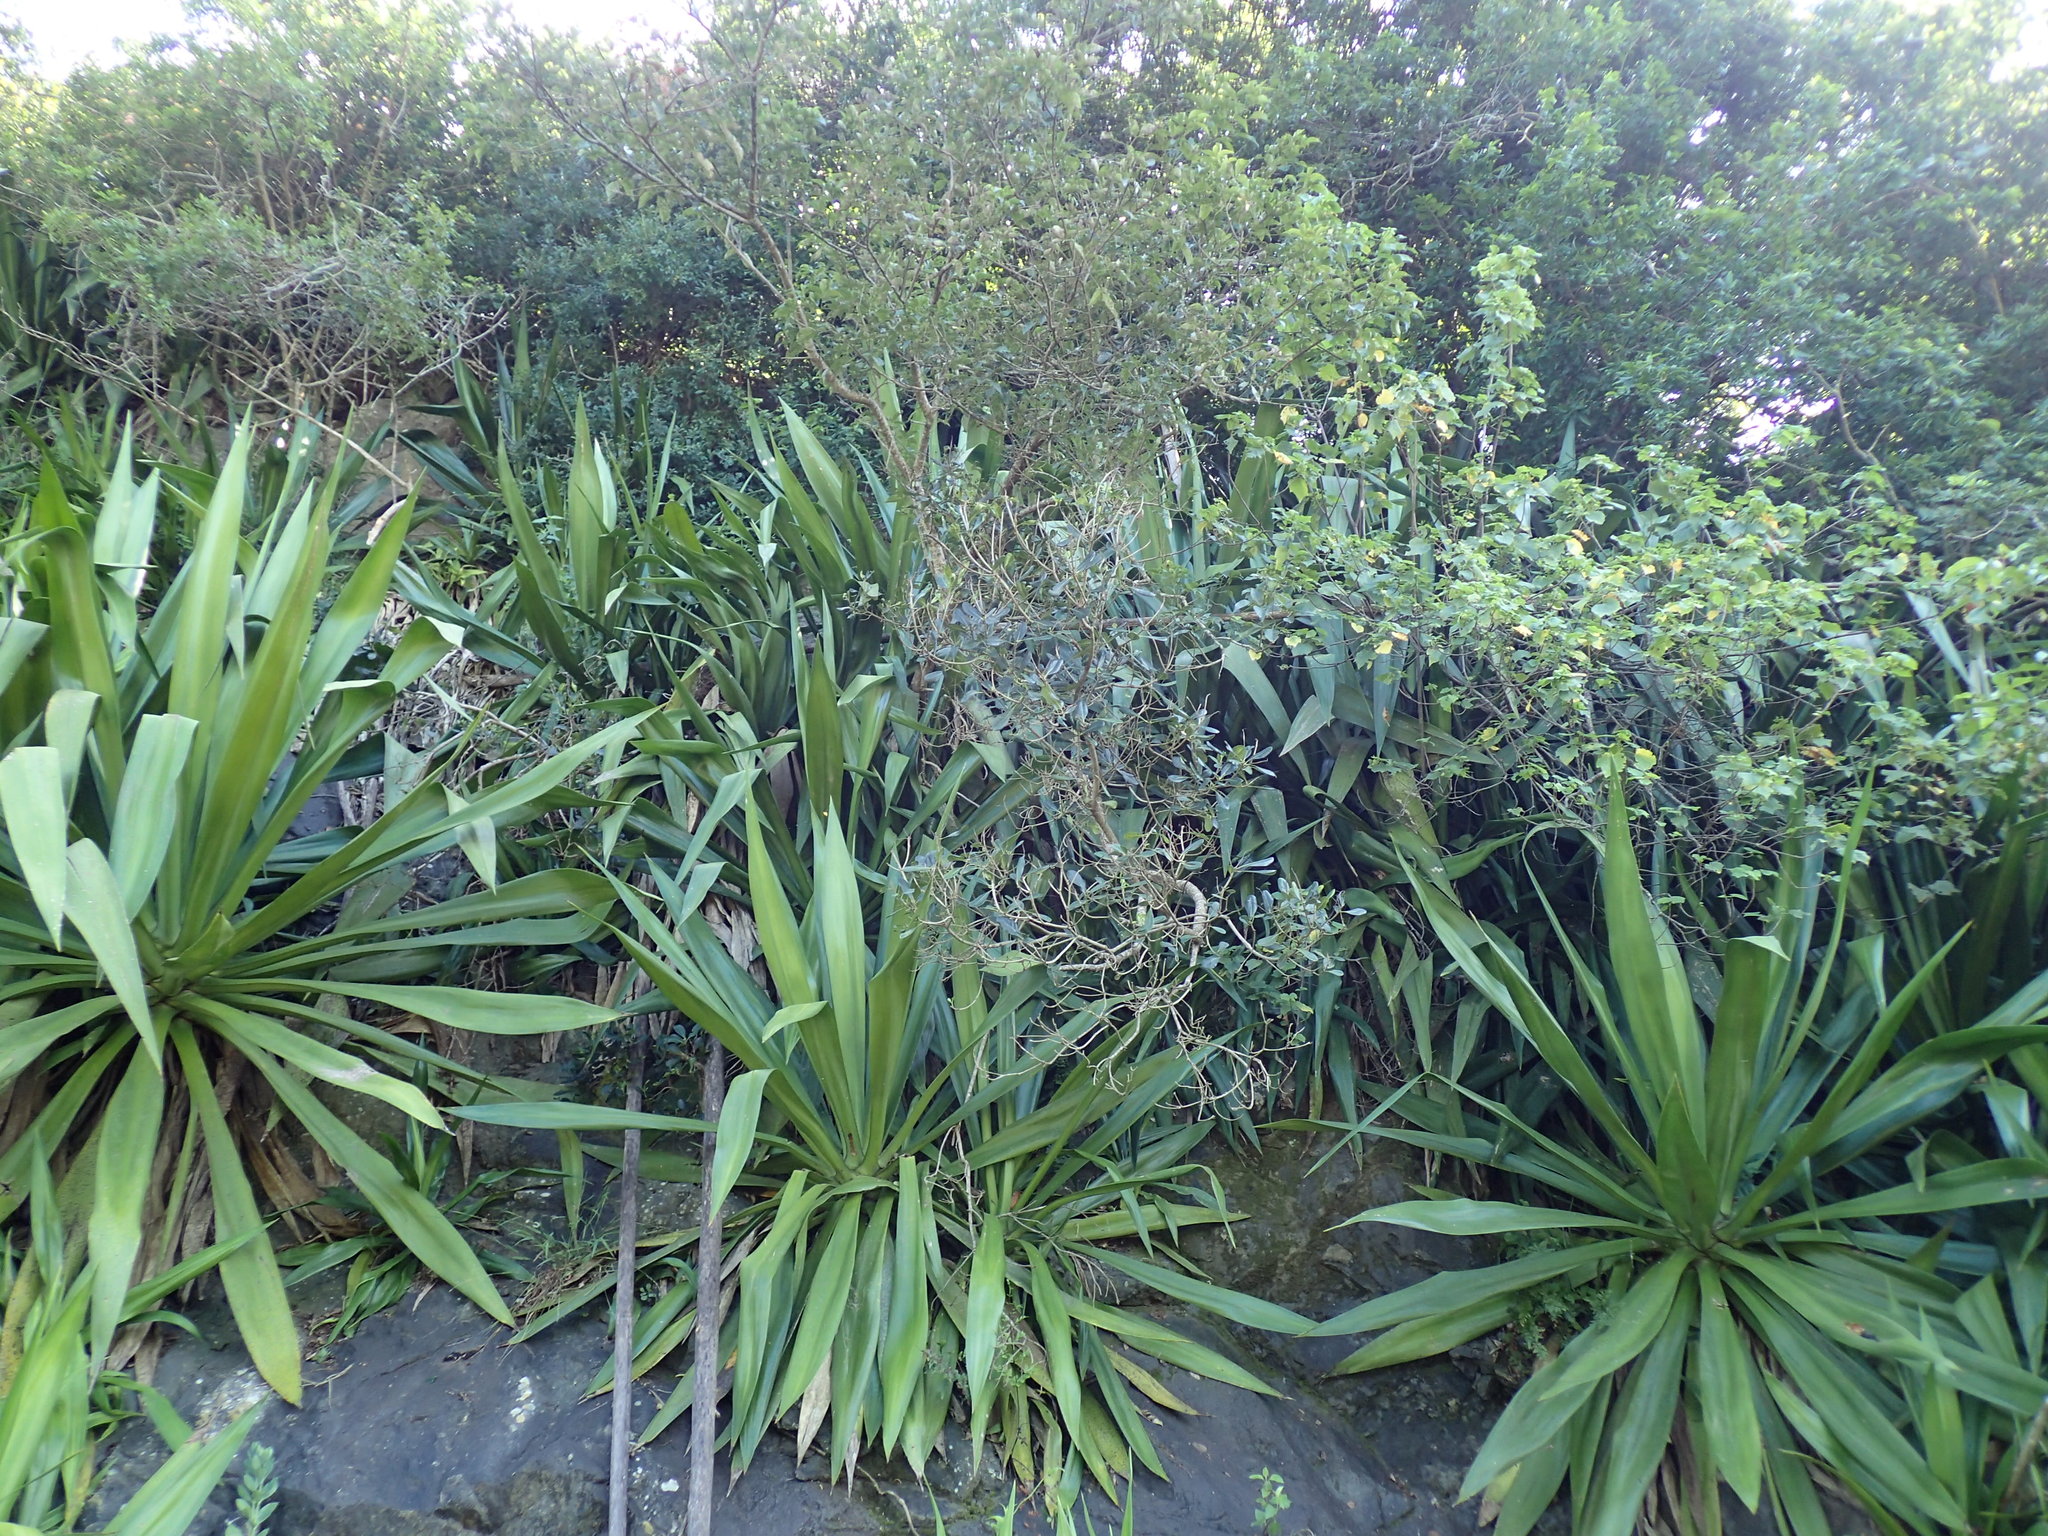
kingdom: Plantae
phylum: Tracheophyta
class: Liliopsida
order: Asparagales
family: Asparagaceae
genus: Furcraea
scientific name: Furcraea foetida
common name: Mauritius hemp
